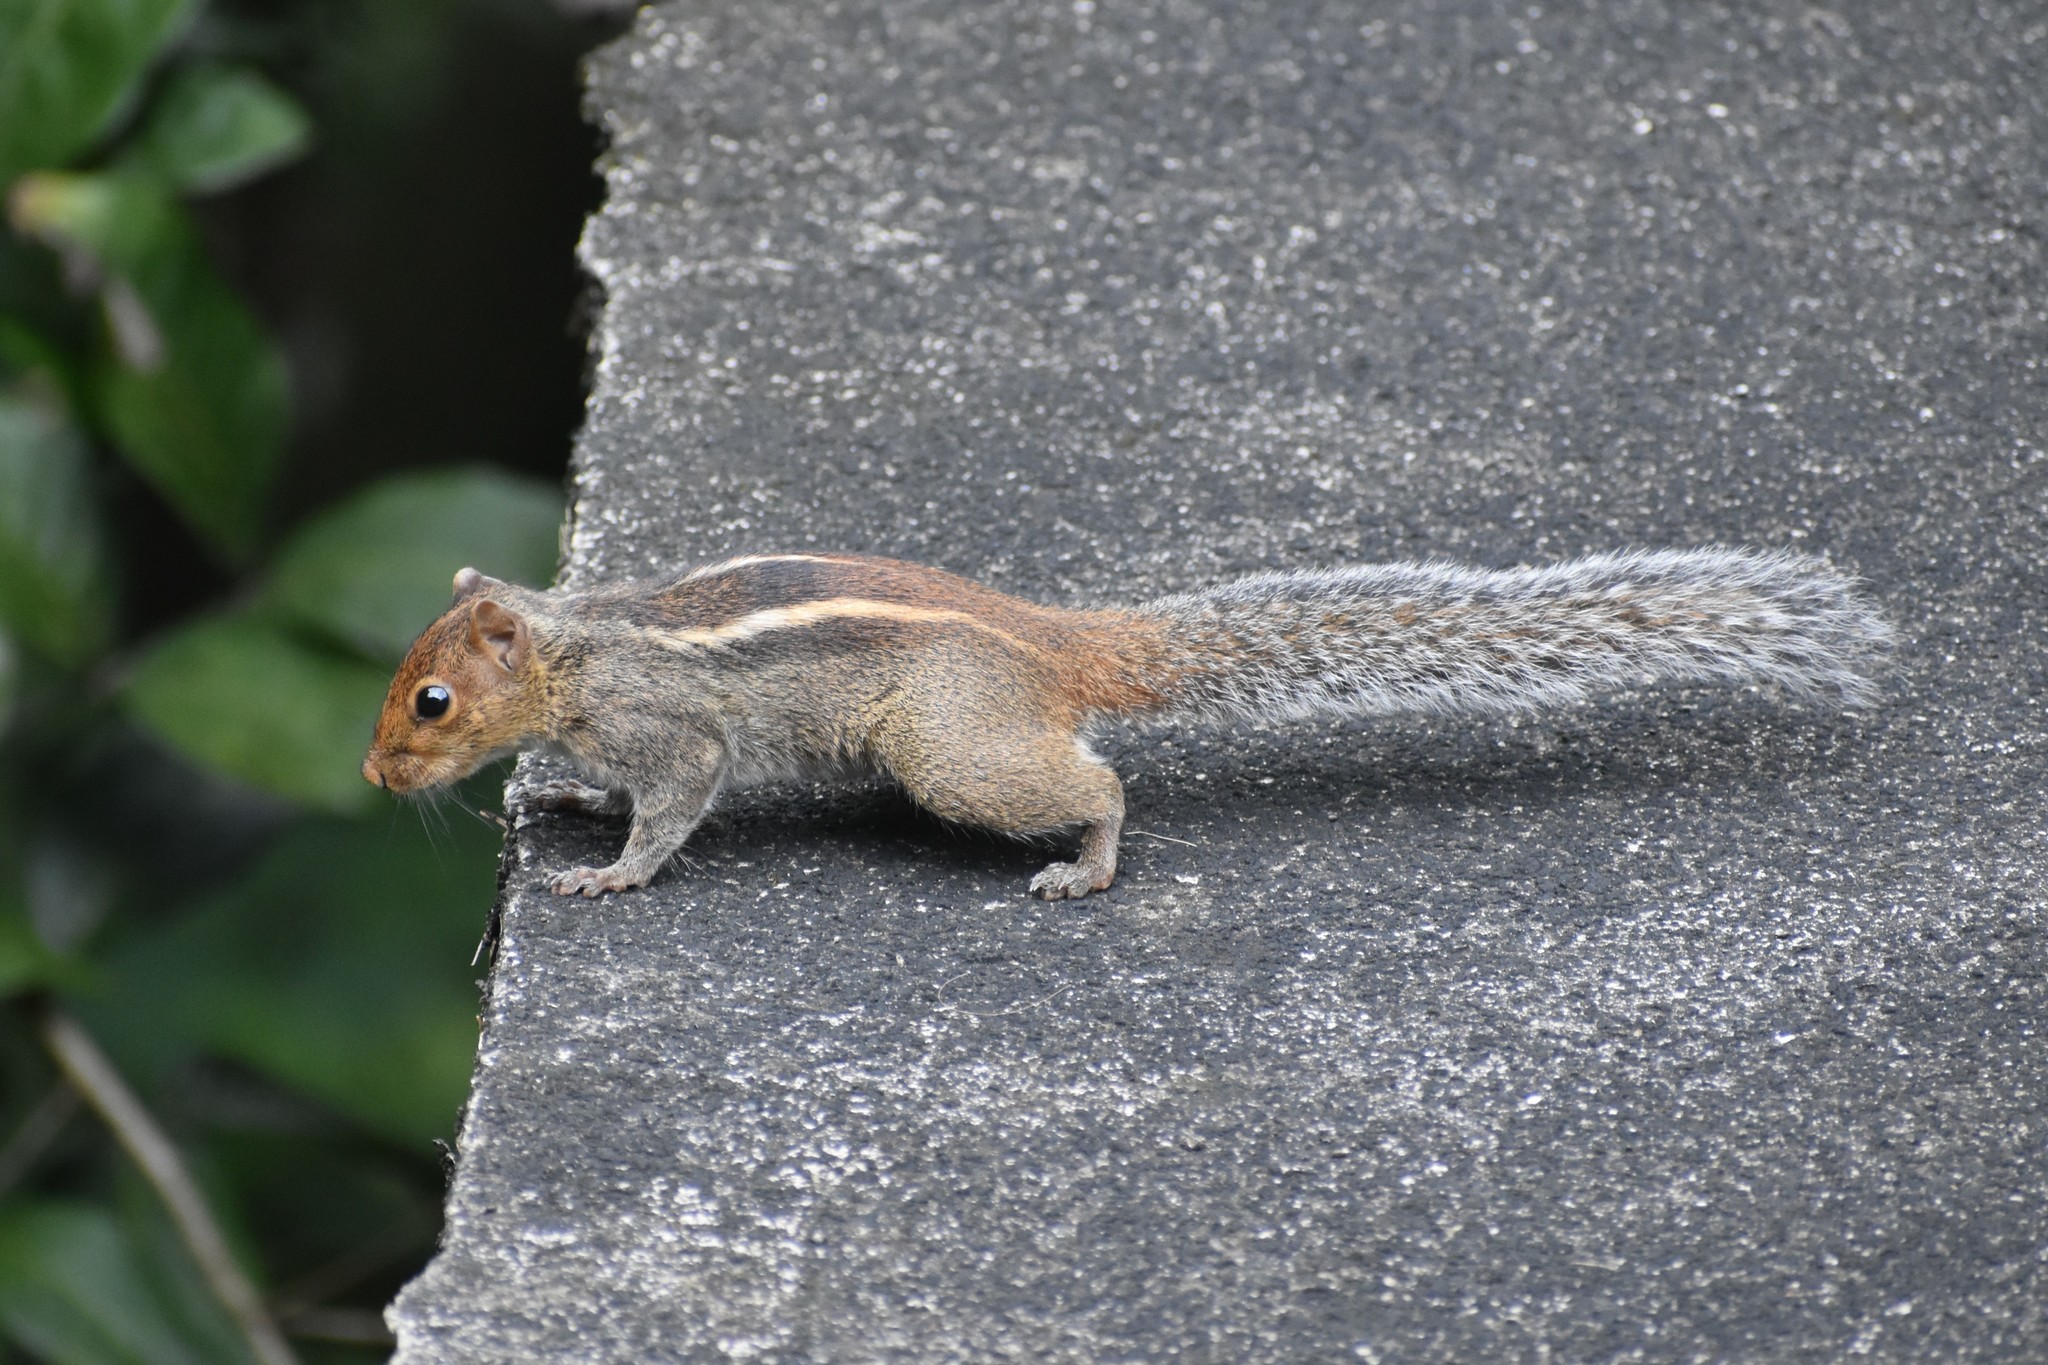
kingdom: Animalia
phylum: Chordata
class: Mammalia
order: Rodentia
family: Sciuridae
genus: Funambulus
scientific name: Funambulus tristriatus
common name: Jungle palm squirrel
